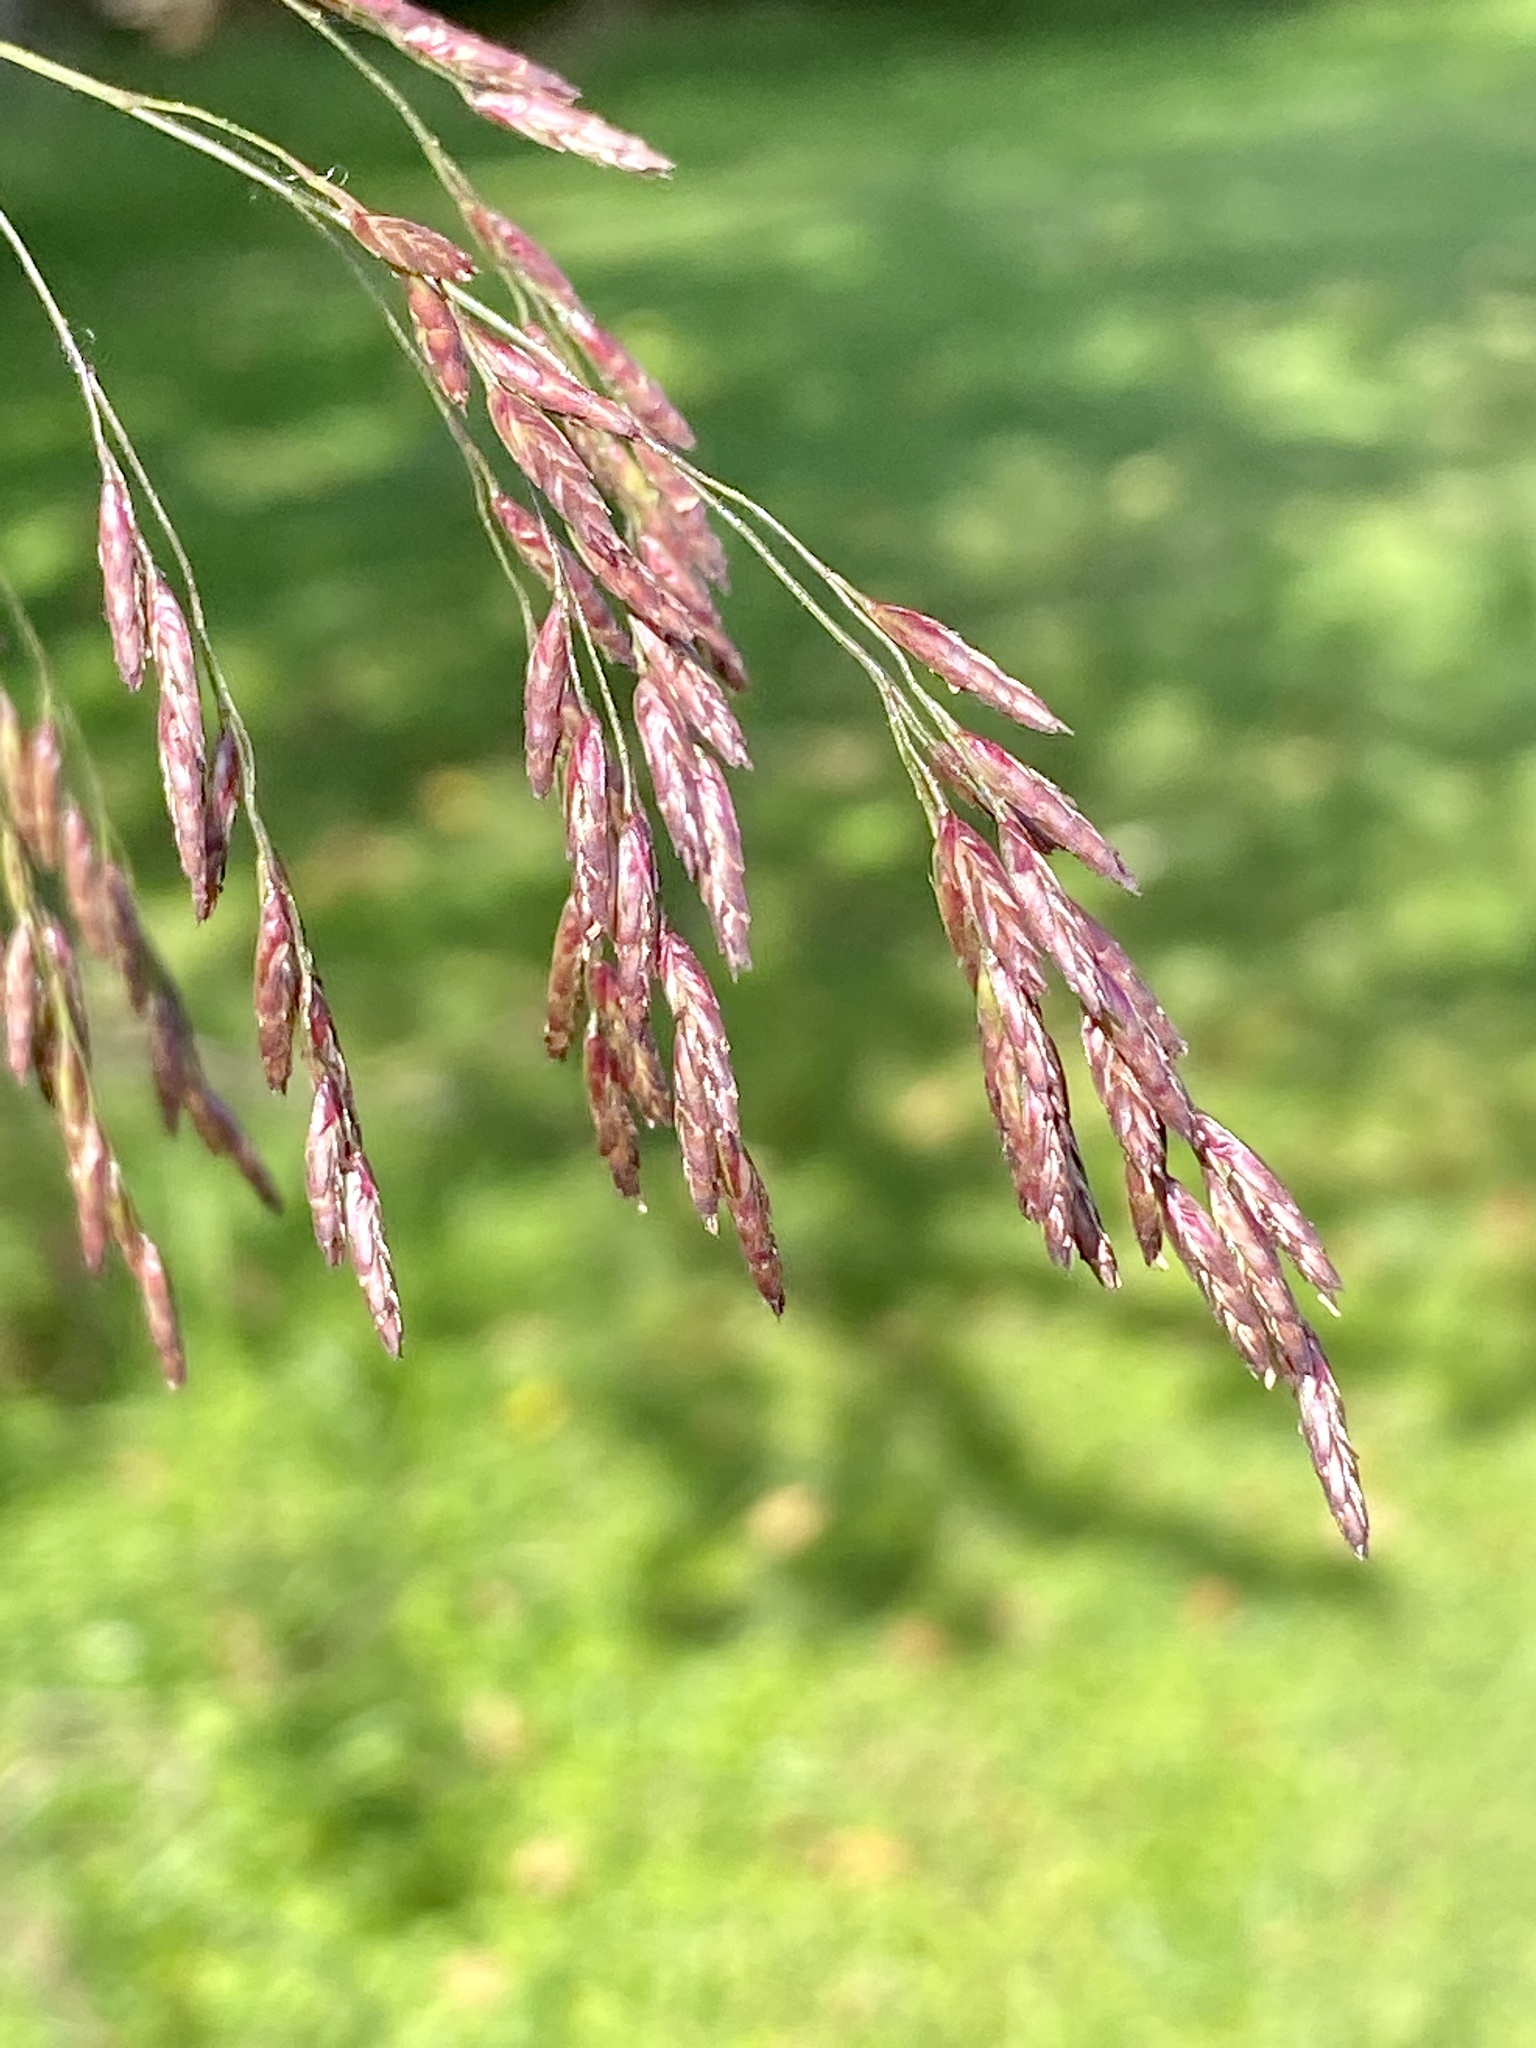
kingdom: Plantae
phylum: Tracheophyta
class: Liliopsida
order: Poales
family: Poaceae
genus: Tridens
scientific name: Tridens flavus
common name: Purpletop
